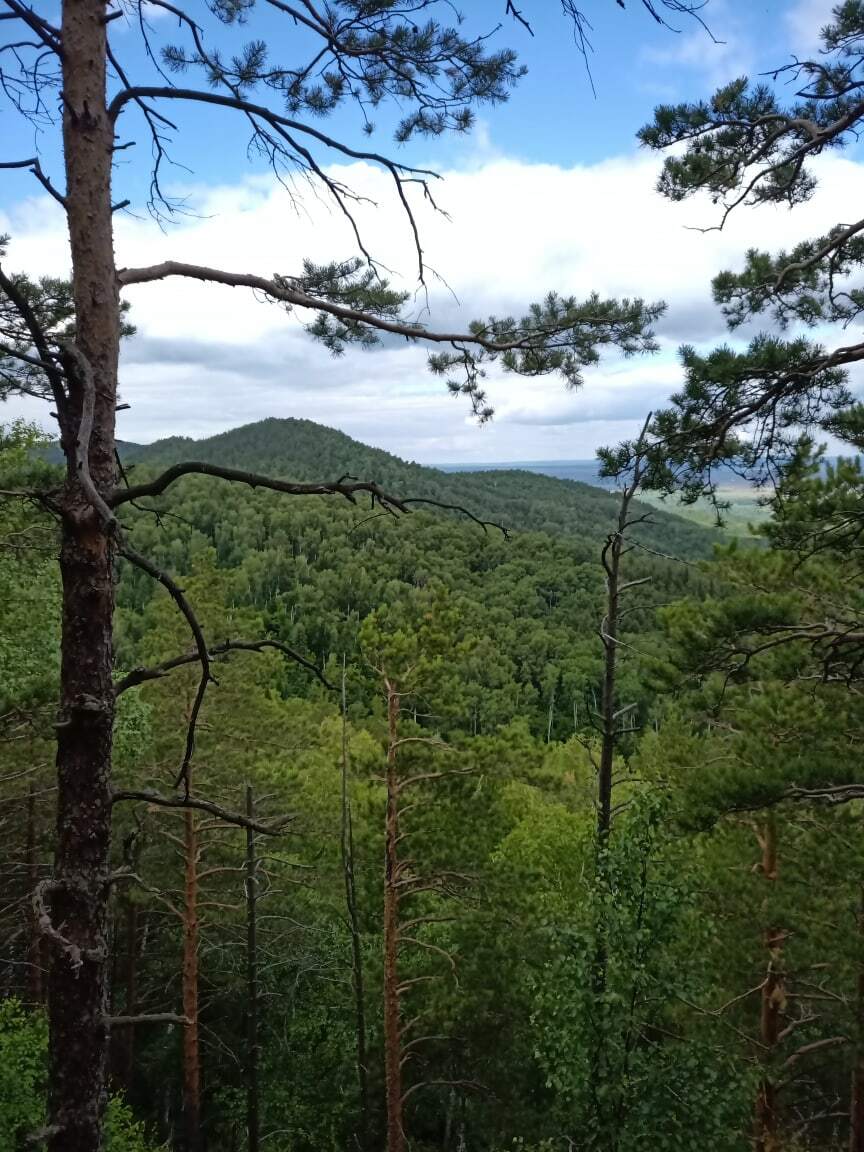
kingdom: Plantae
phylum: Tracheophyta
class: Pinopsida
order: Pinales
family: Pinaceae
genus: Pinus
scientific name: Pinus sylvestris
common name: Scots pine
